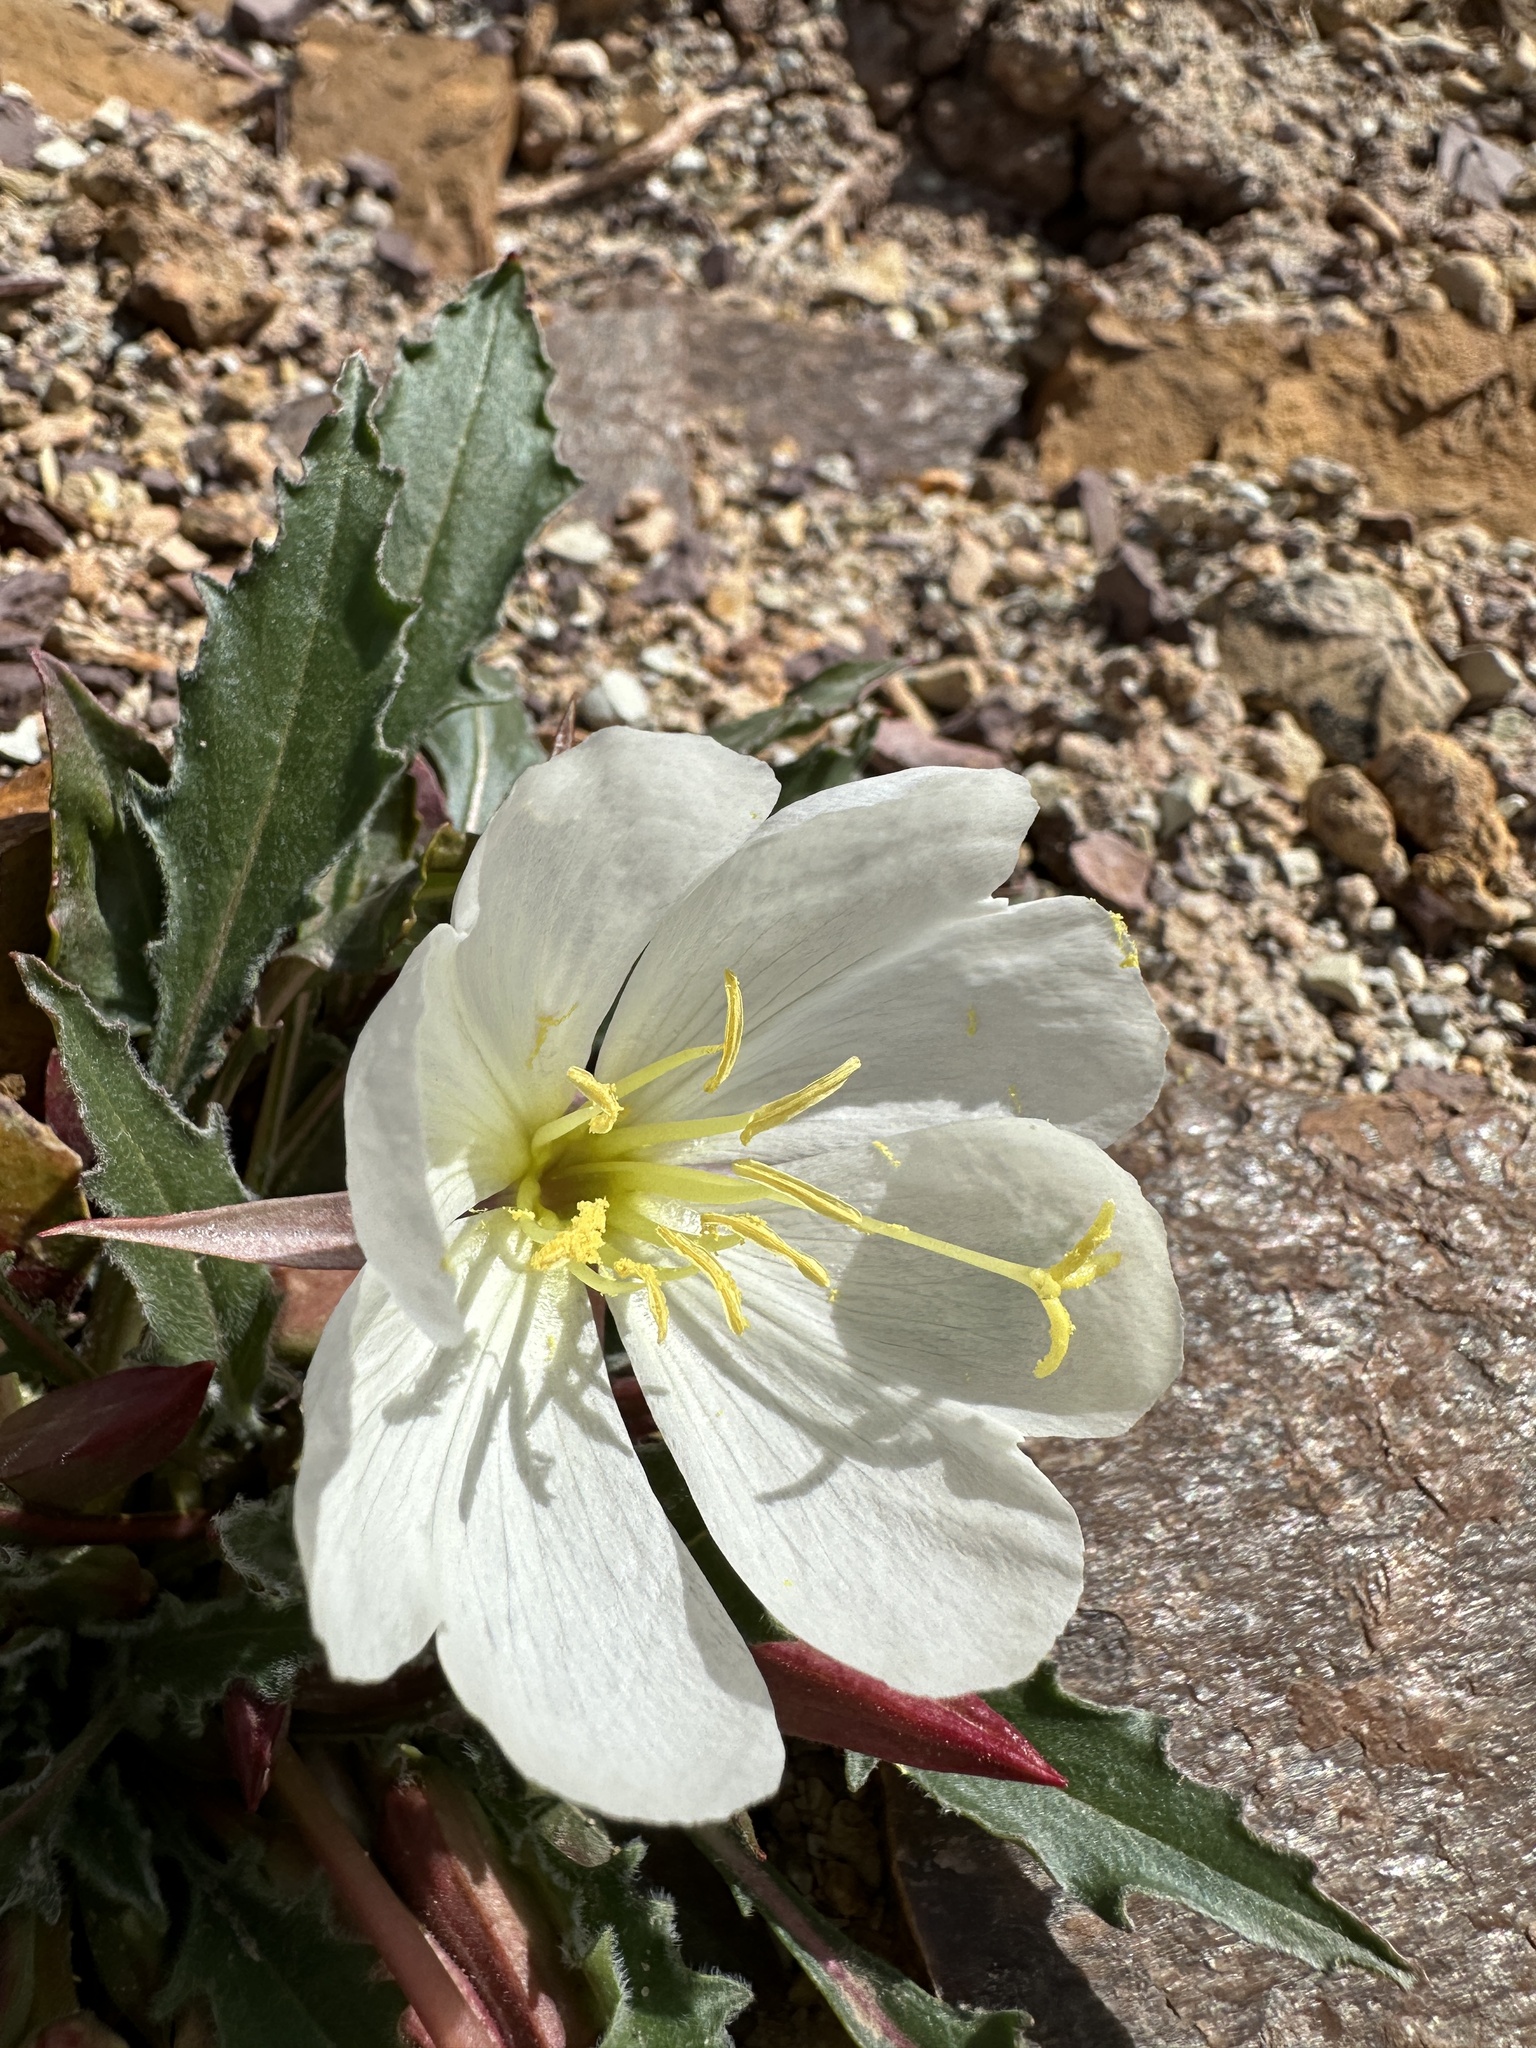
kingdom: Plantae
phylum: Tracheophyta
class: Magnoliopsida
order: Myrtales
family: Onagraceae
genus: Oenothera
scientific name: Oenothera cespitosa
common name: Tufted evening-primrose
